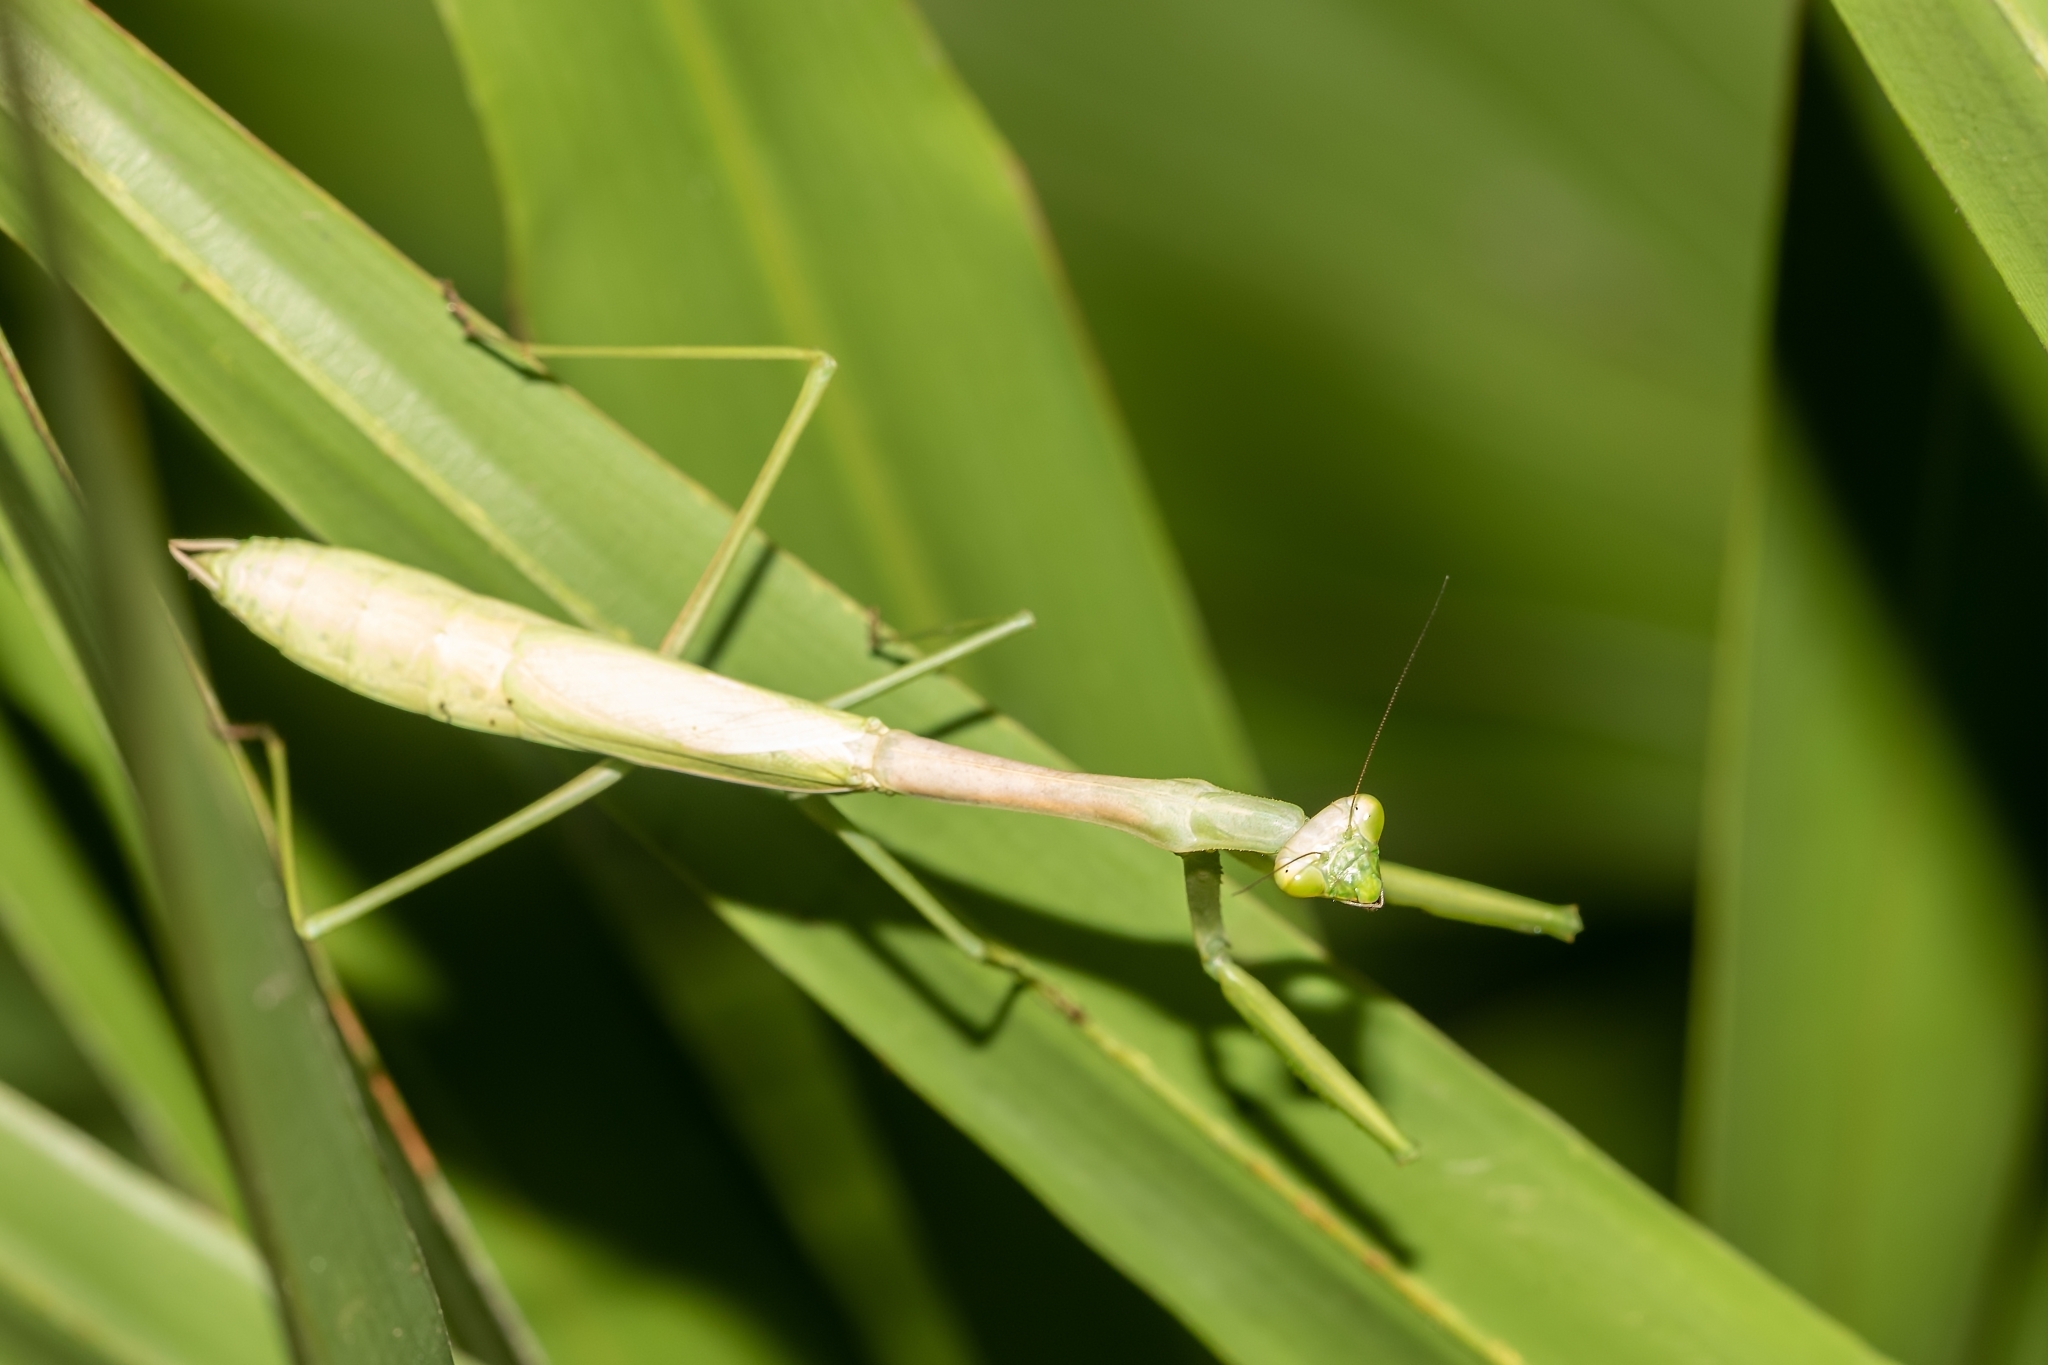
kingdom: Animalia
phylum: Arthropoda
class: Insecta
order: Mantodea
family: Mantidae
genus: Stagmomantis
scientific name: Stagmomantis floridensis
